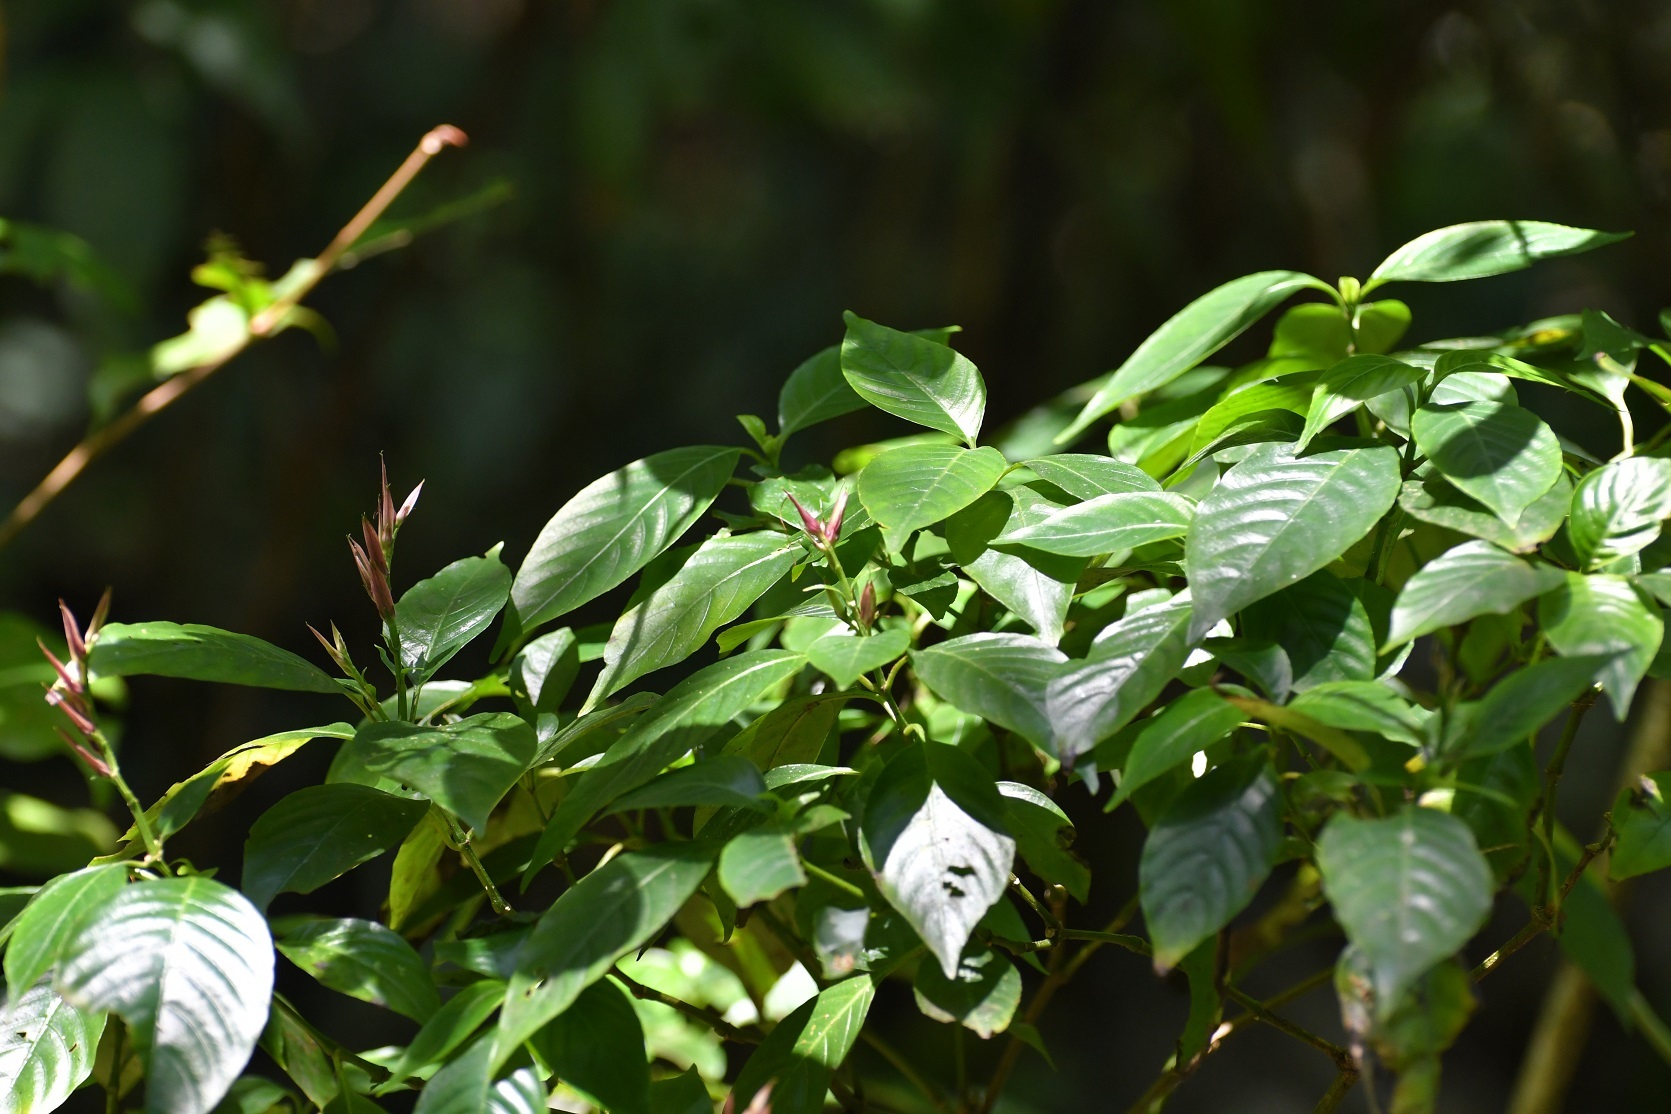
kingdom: Plantae
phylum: Tracheophyta
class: Magnoliopsida
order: Lamiales
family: Acanthaceae
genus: Lepidagathis
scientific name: Lepidagathis chiapensis
